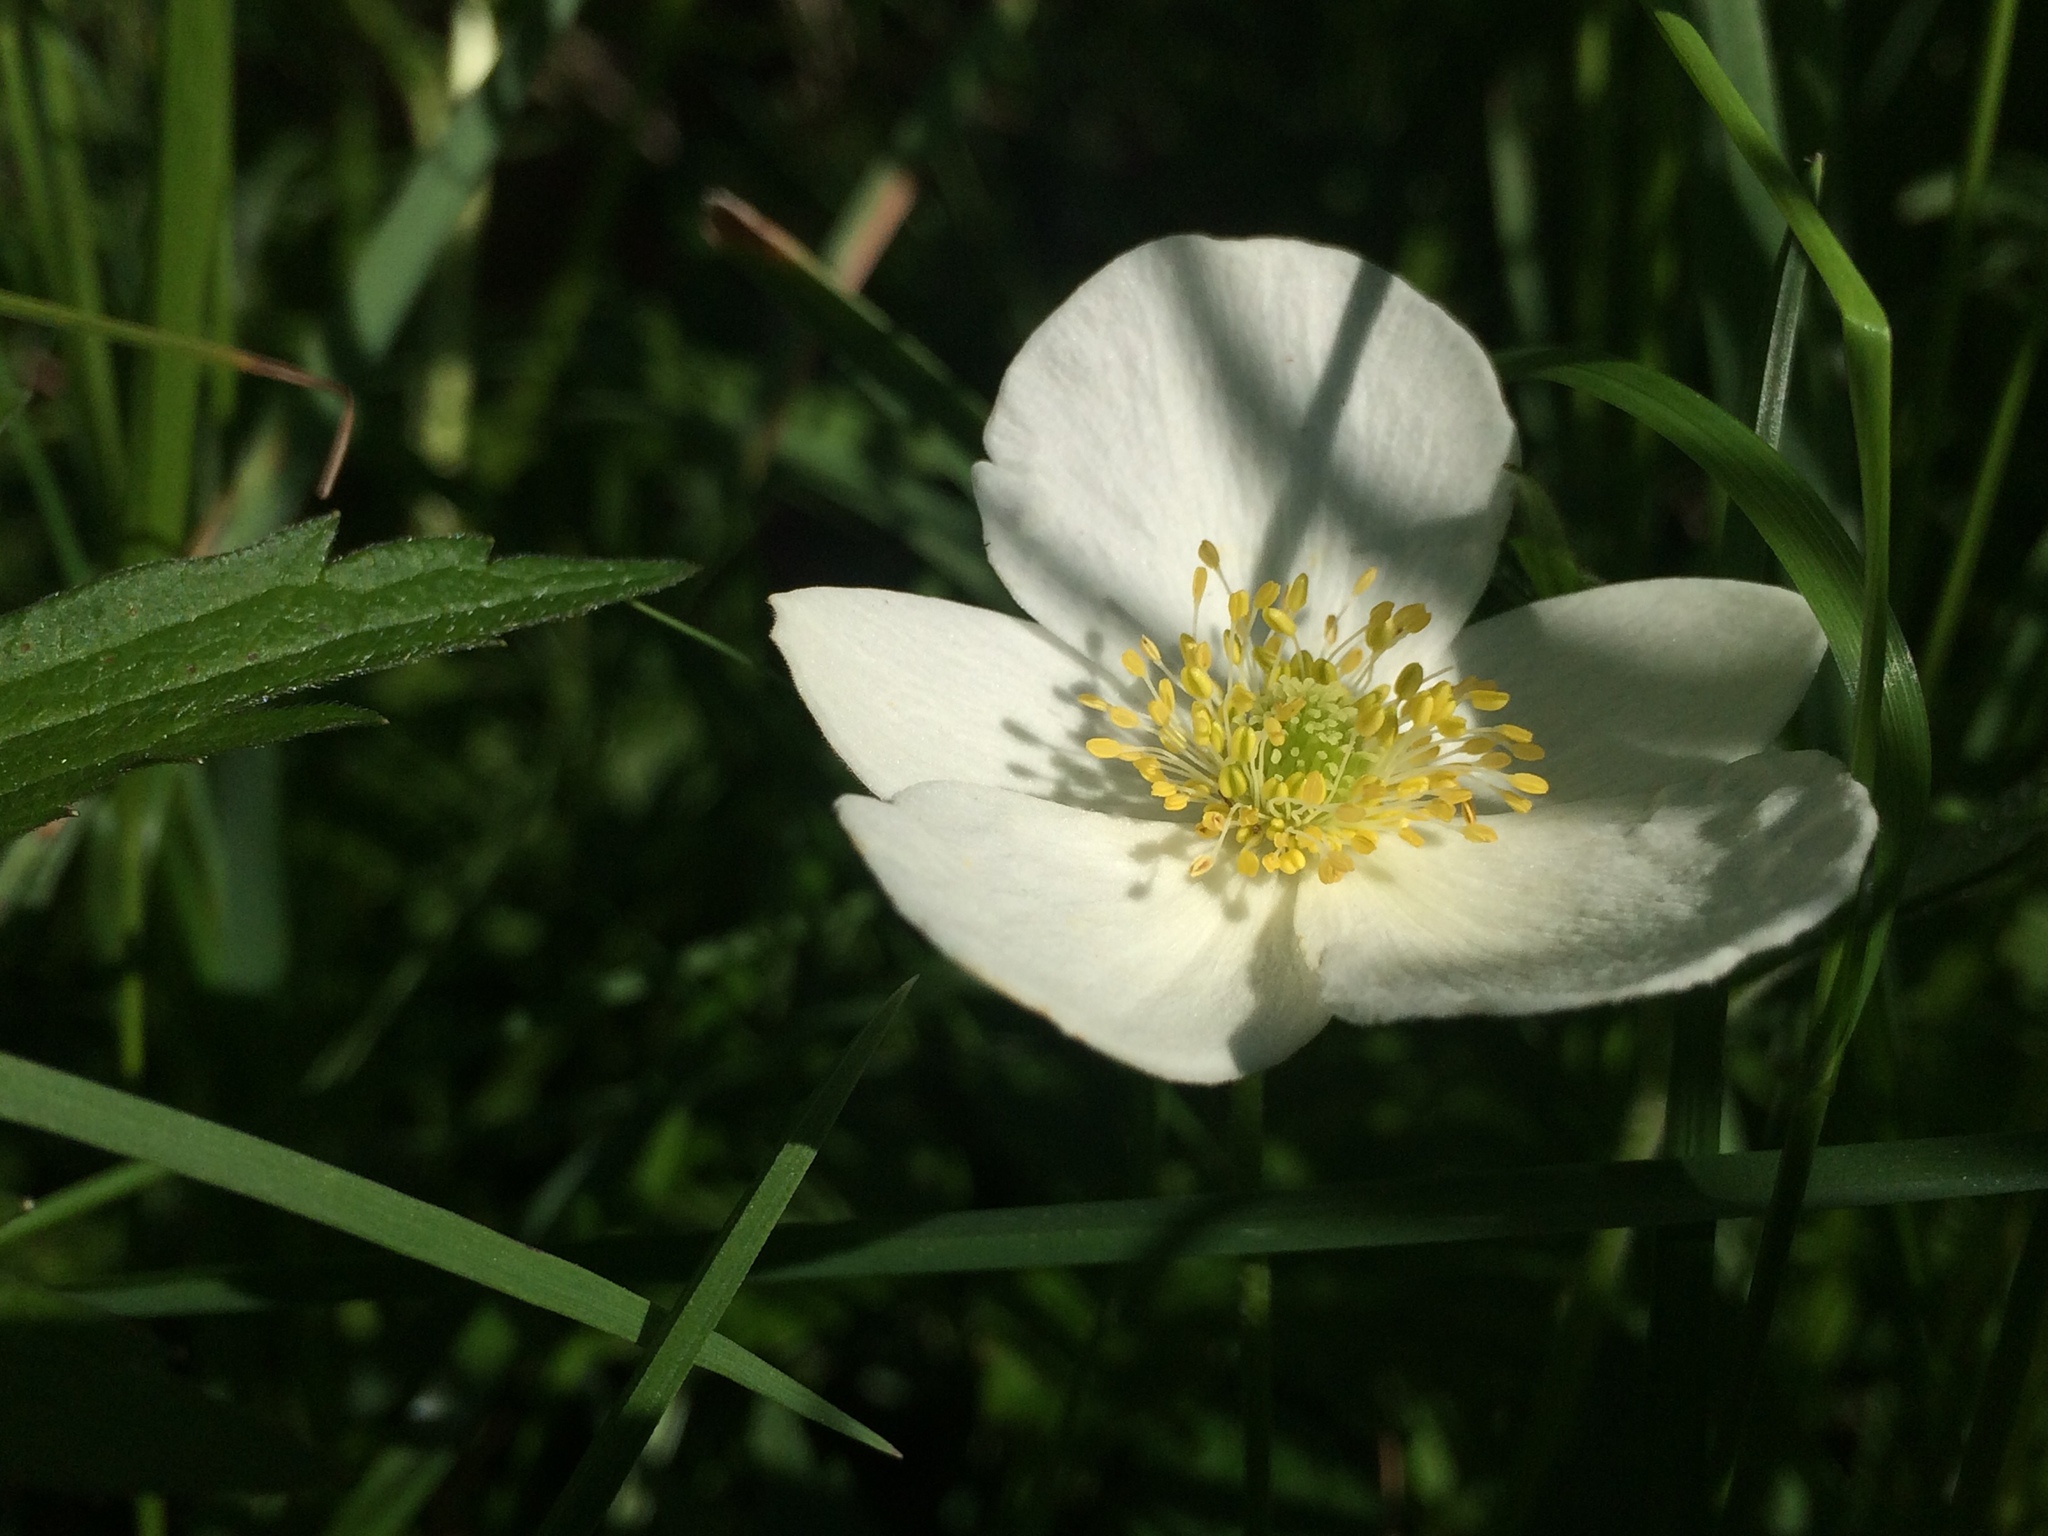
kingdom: Plantae
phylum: Tracheophyta
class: Magnoliopsida
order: Ranunculales
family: Ranunculaceae
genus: Anemonastrum
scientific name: Anemonastrum canadense
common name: Canada anemone
